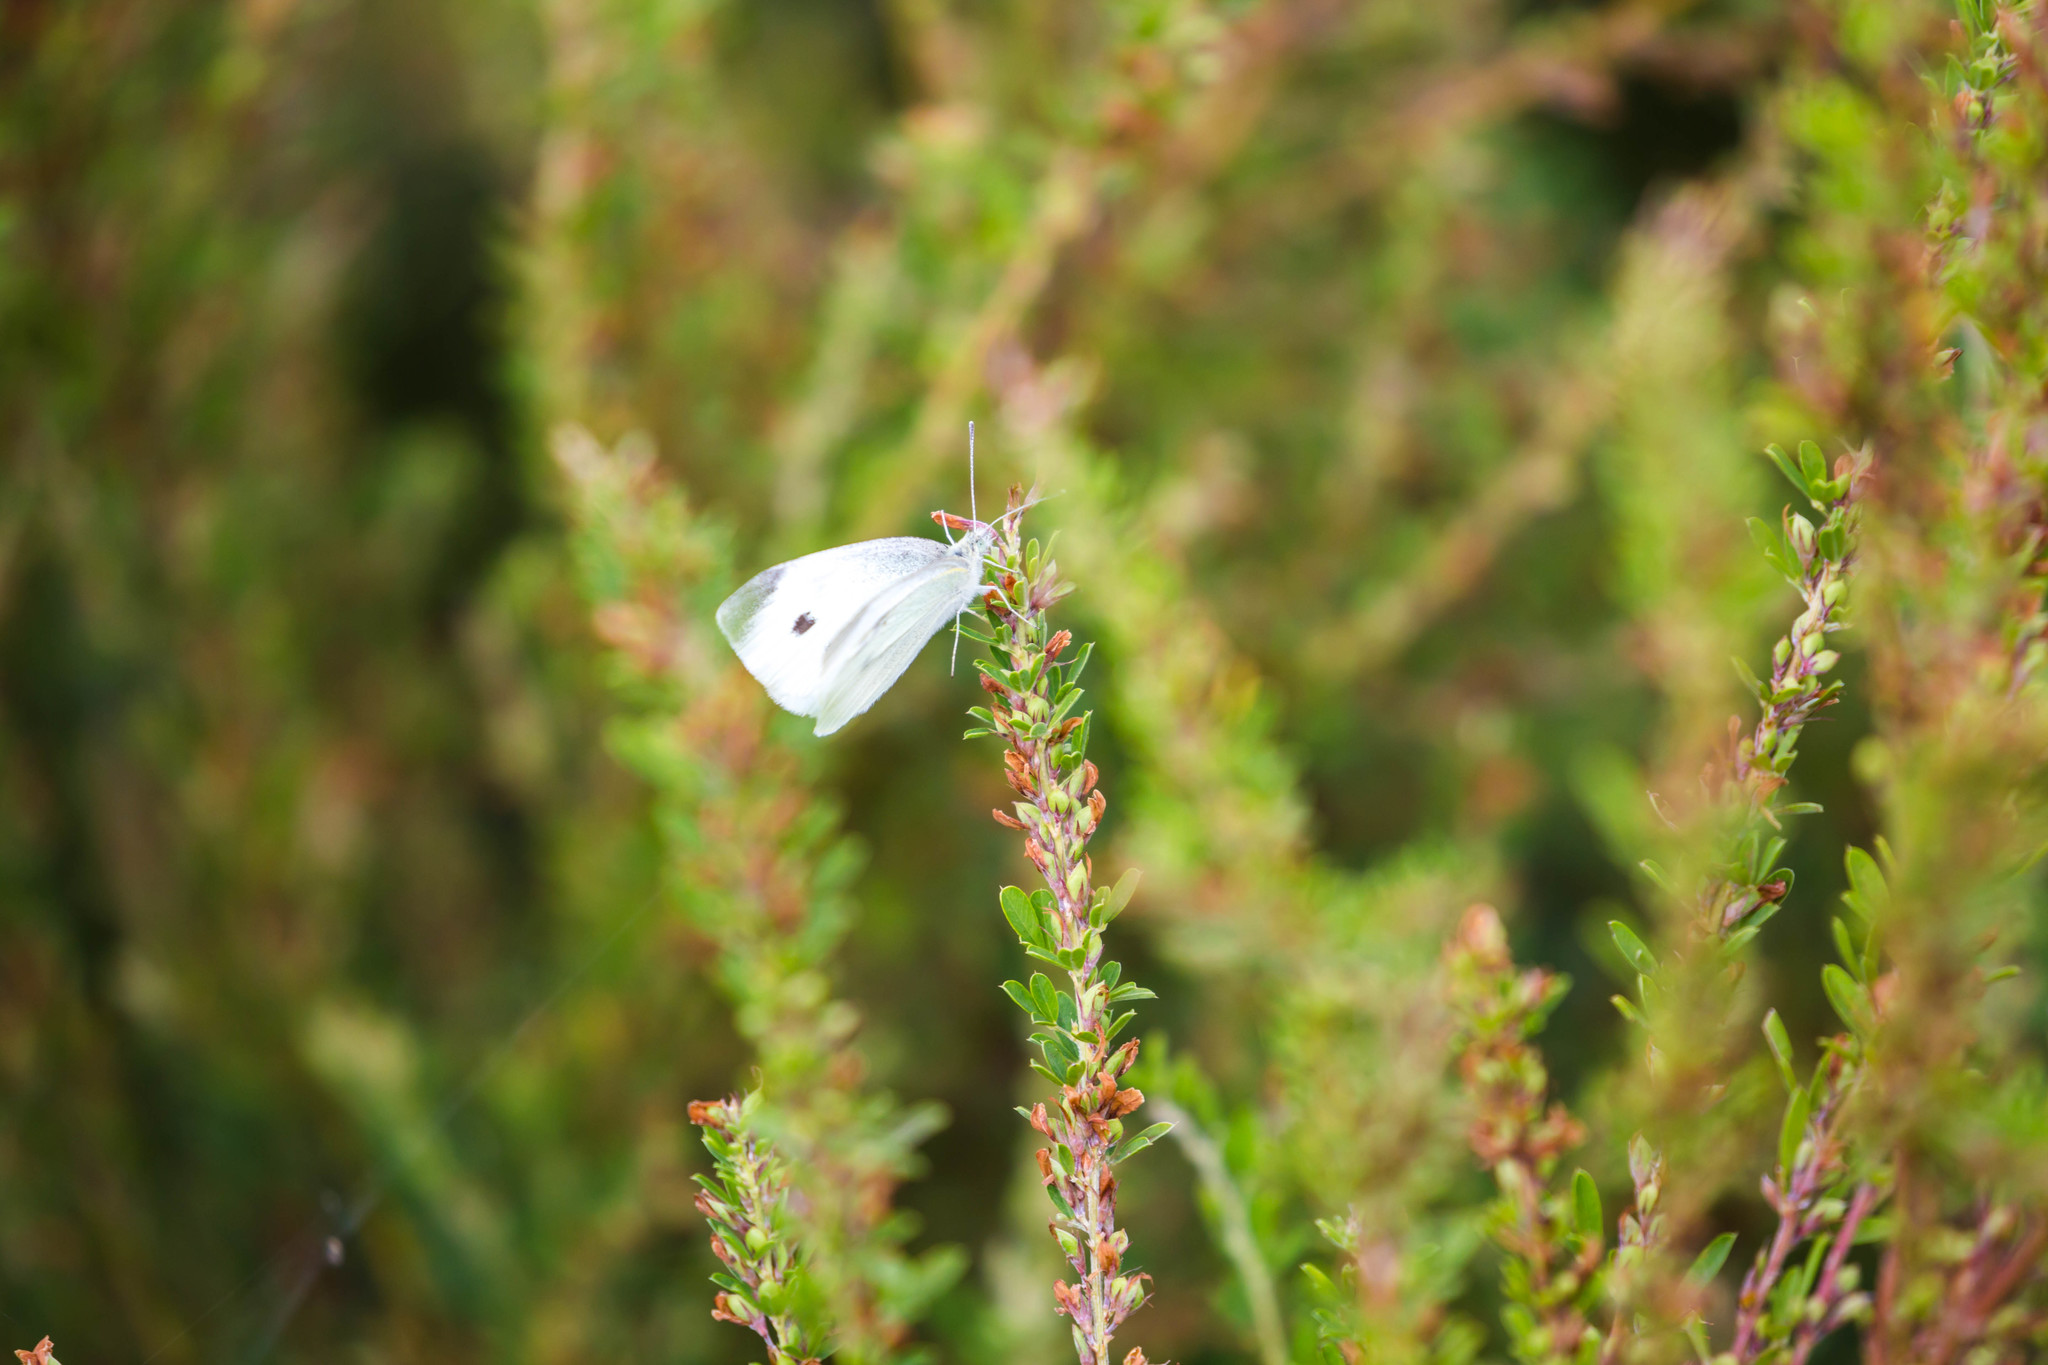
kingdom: Animalia
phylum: Arthropoda
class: Insecta
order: Lepidoptera
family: Pieridae
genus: Pieris
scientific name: Pieris rapae
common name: Small white
